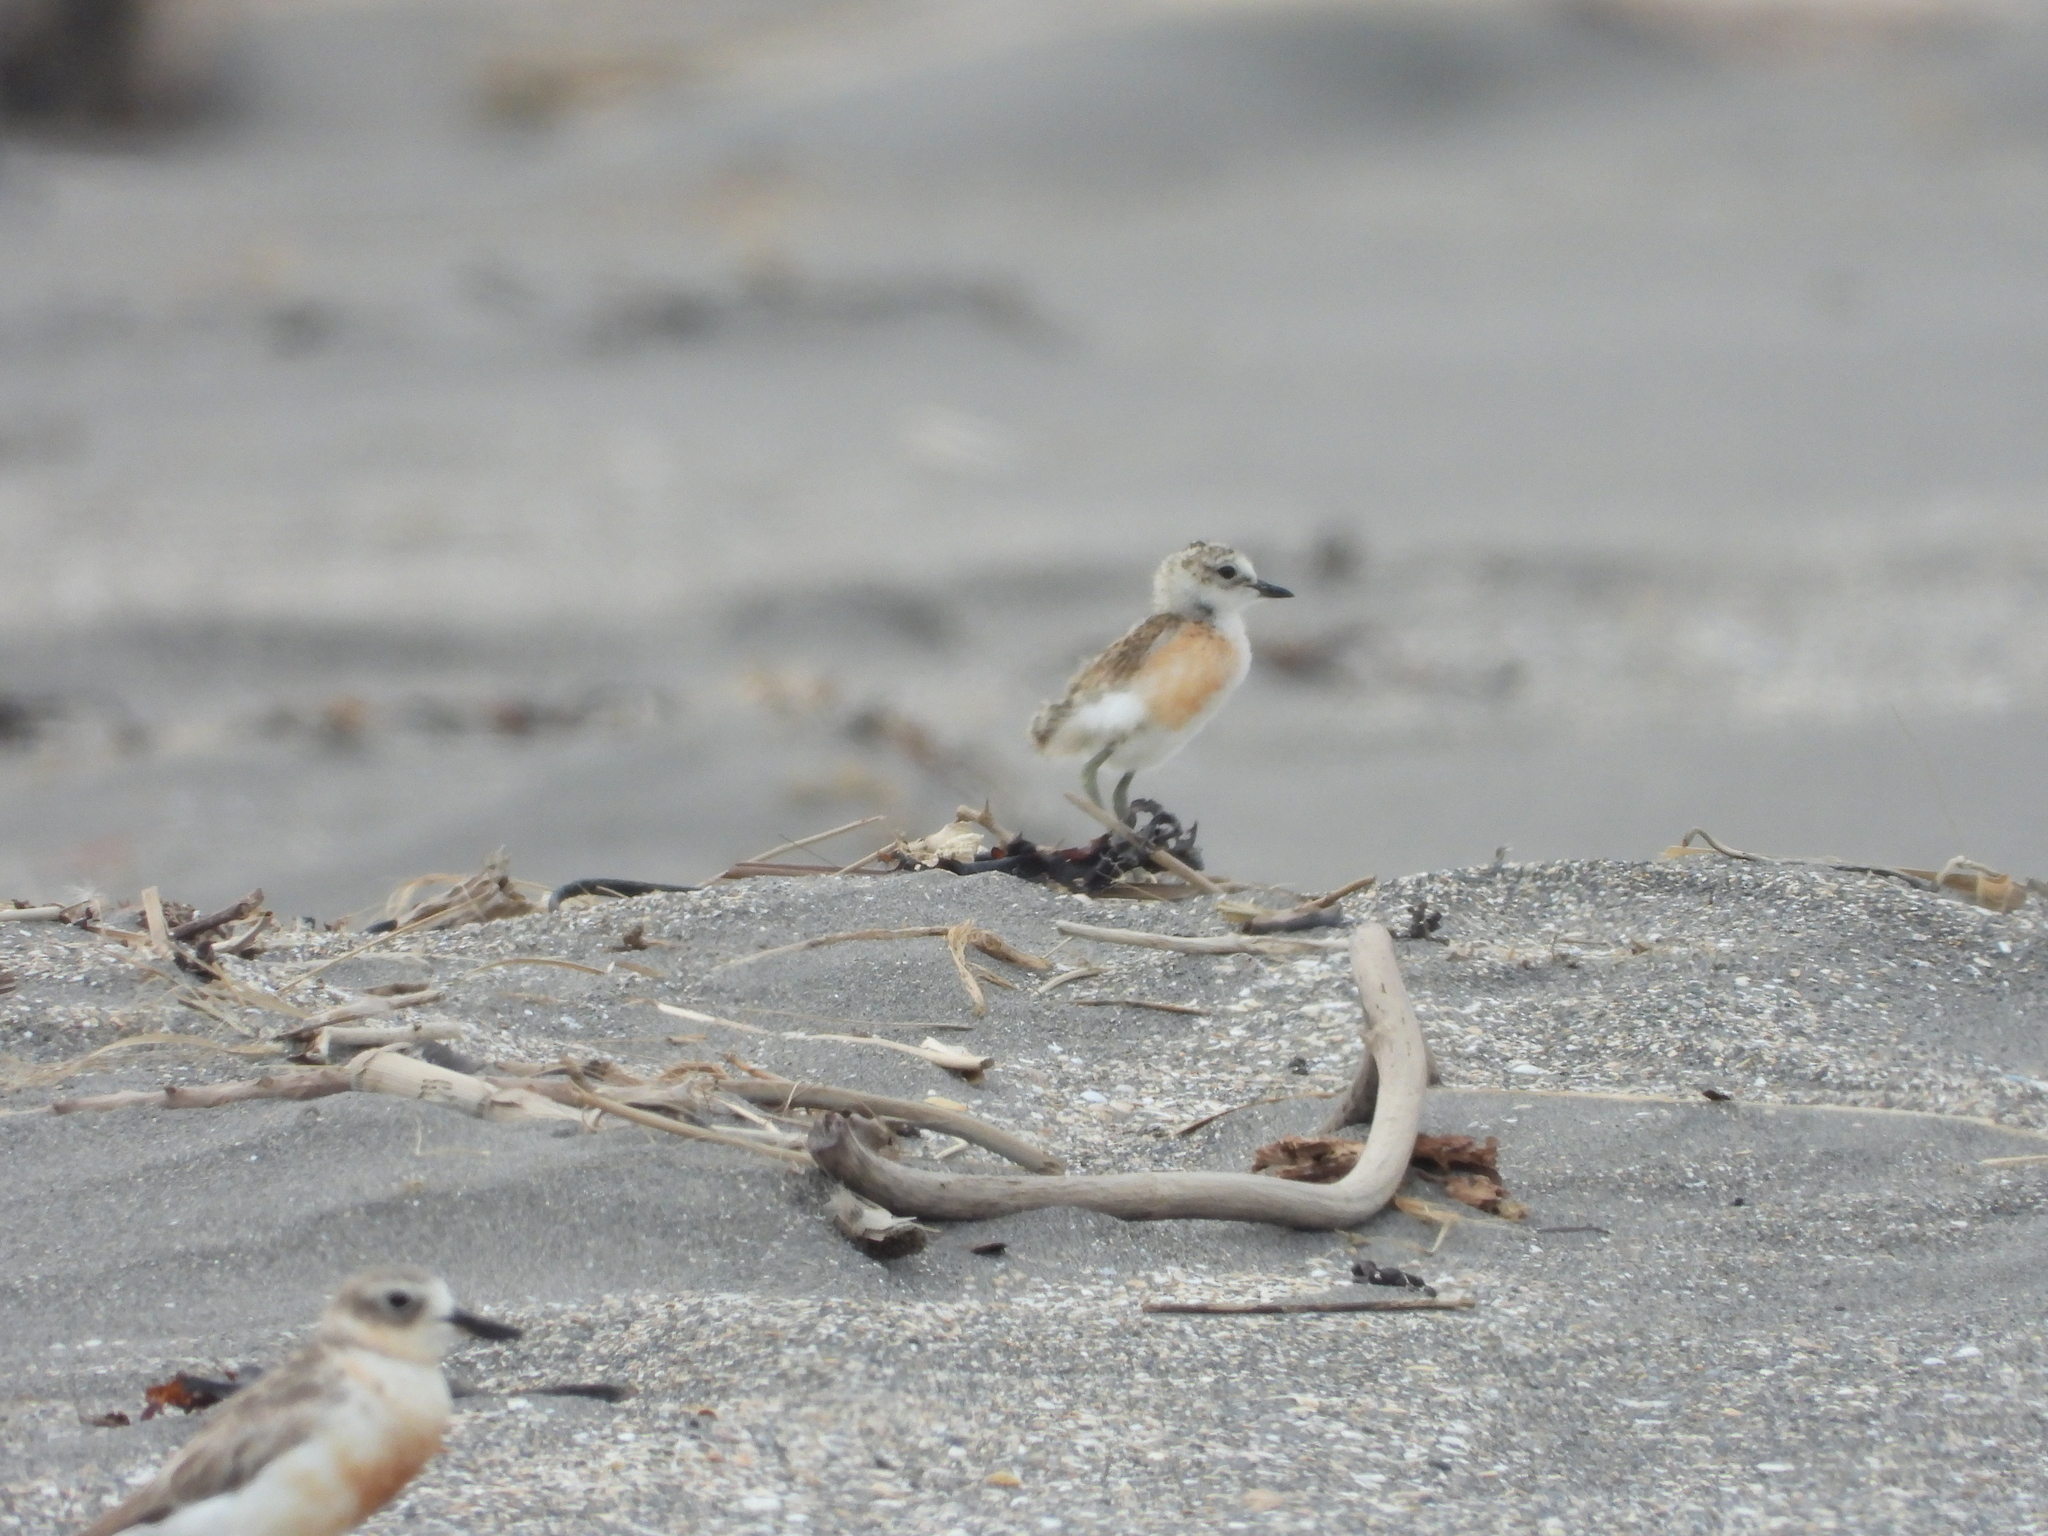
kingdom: Animalia
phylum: Chordata
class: Aves
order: Charadriiformes
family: Charadriidae
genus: Anarhynchus
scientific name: Anarhynchus
